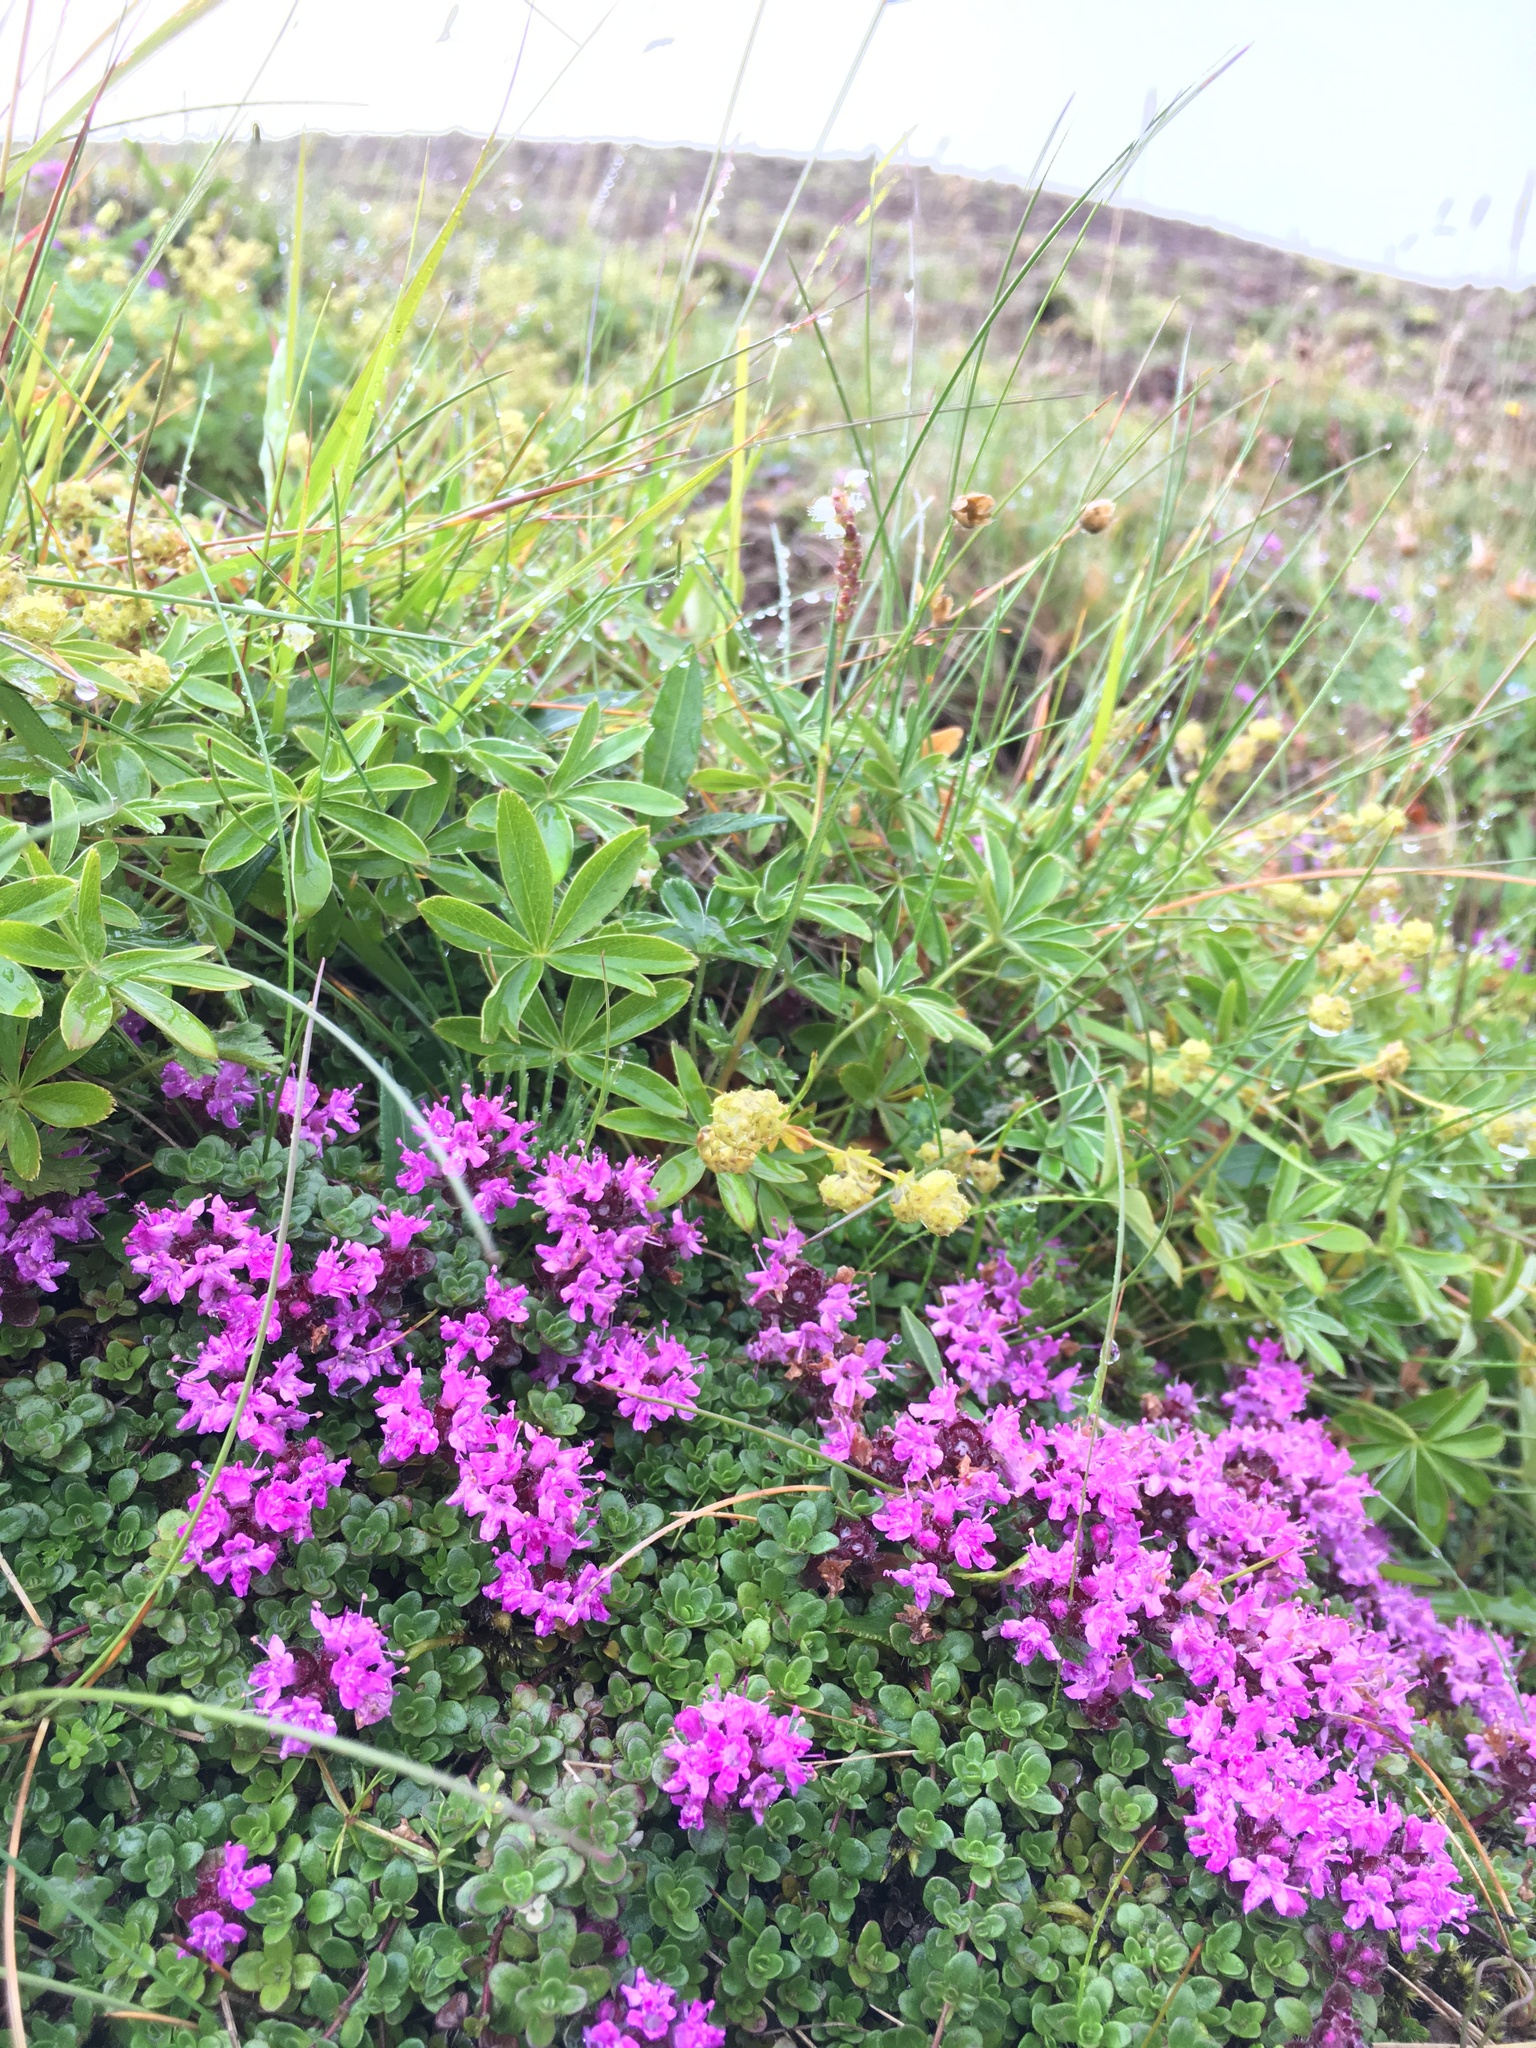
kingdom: Plantae
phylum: Tracheophyta
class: Magnoliopsida
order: Lamiales
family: Lamiaceae
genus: Thymus
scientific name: Thymus praecox
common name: Wild thyme
